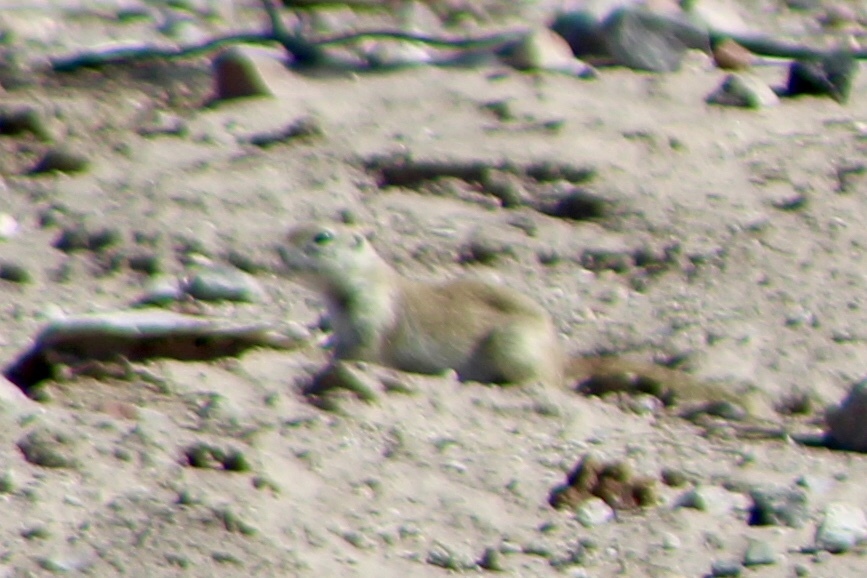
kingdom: Animalia
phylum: Chordata
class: Mammalia
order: Rodentia
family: Sciuridae
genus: Xerospermophilus
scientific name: Xerospermophilus tereticaudus
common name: Round-tailed ground squirrel
